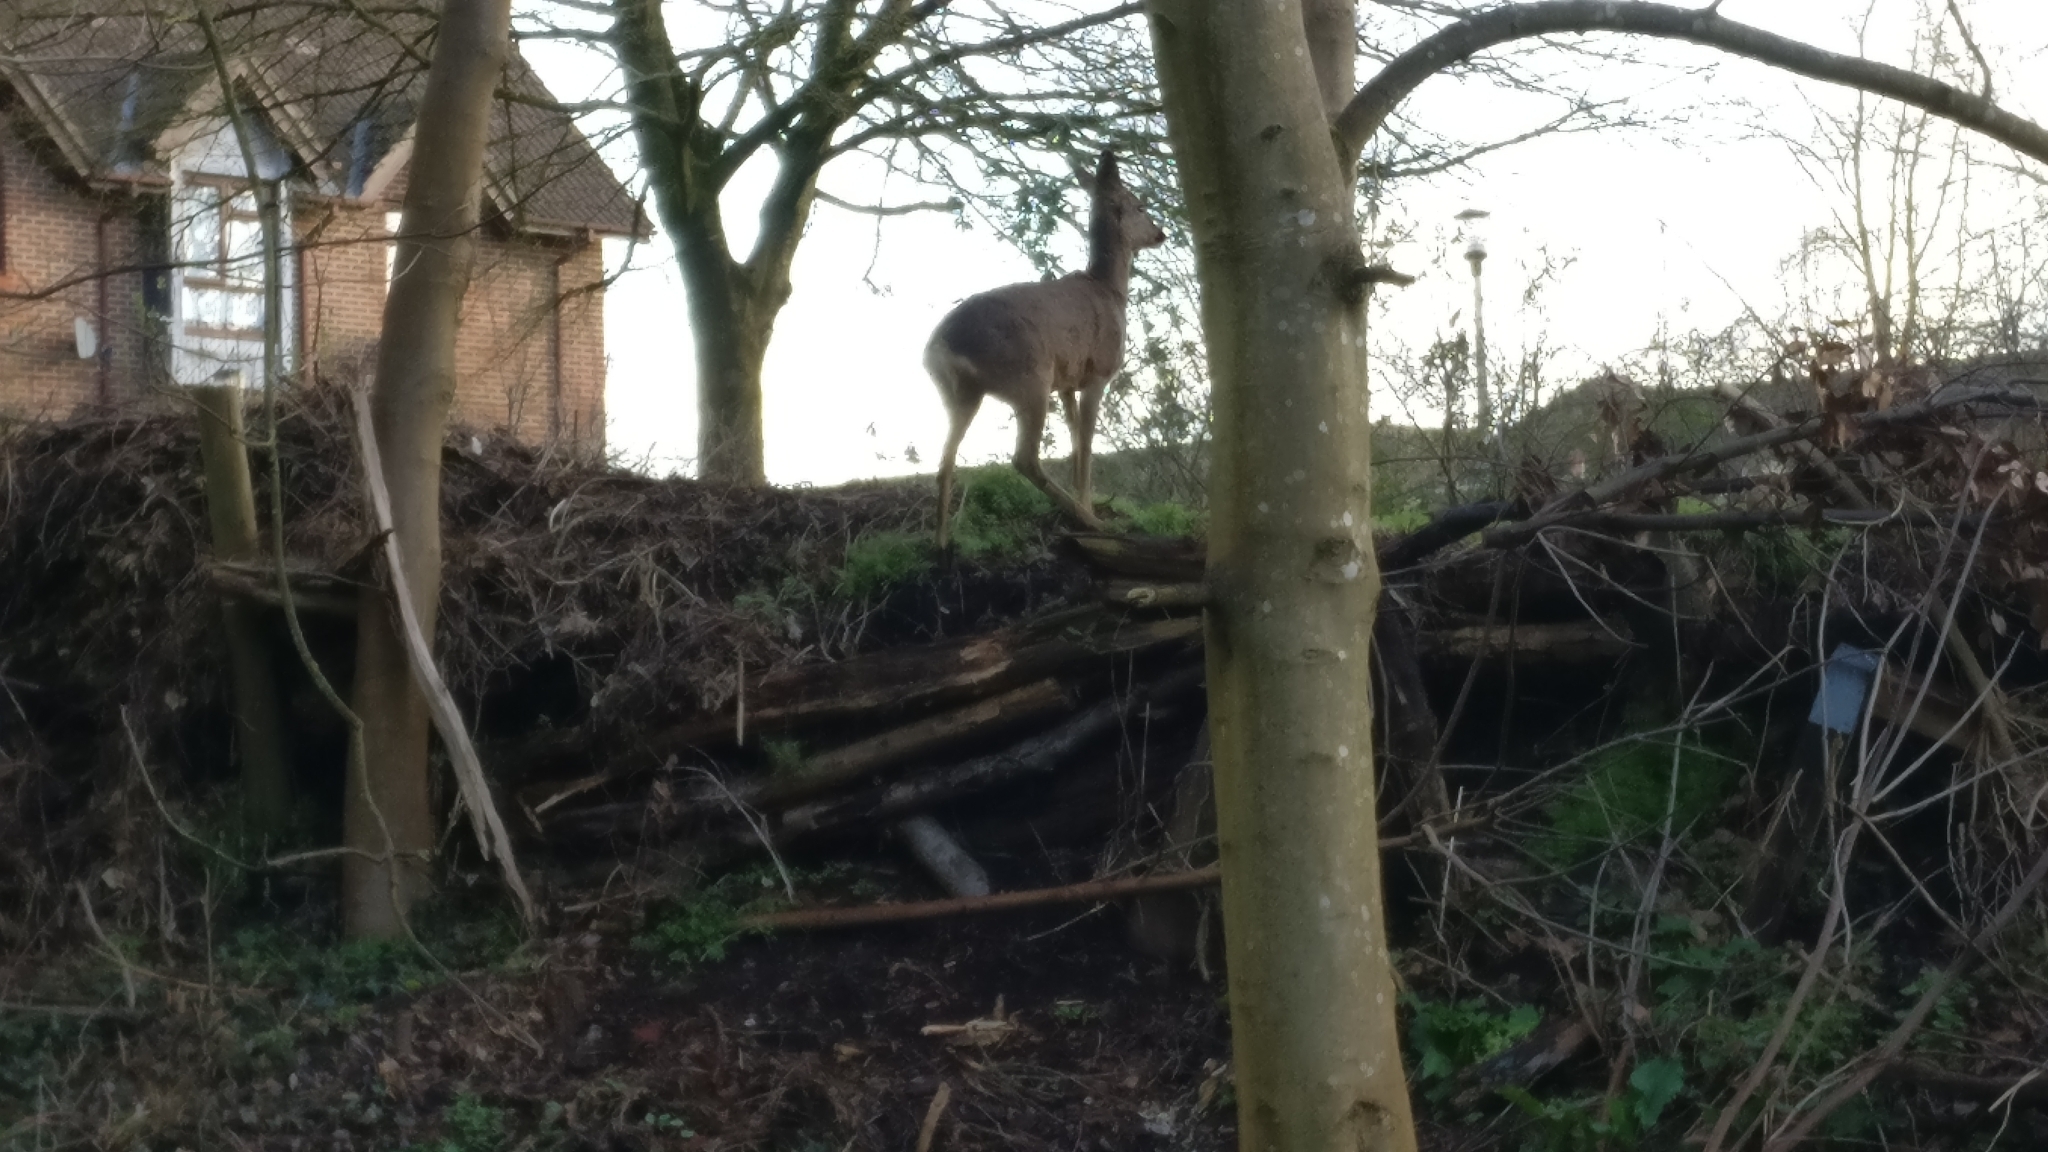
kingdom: Animalia
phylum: Chordata
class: Mammalia
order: Artiodactyla
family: Cervidae
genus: Capreolus
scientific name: Capreolus capreolus
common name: Western roe deer
